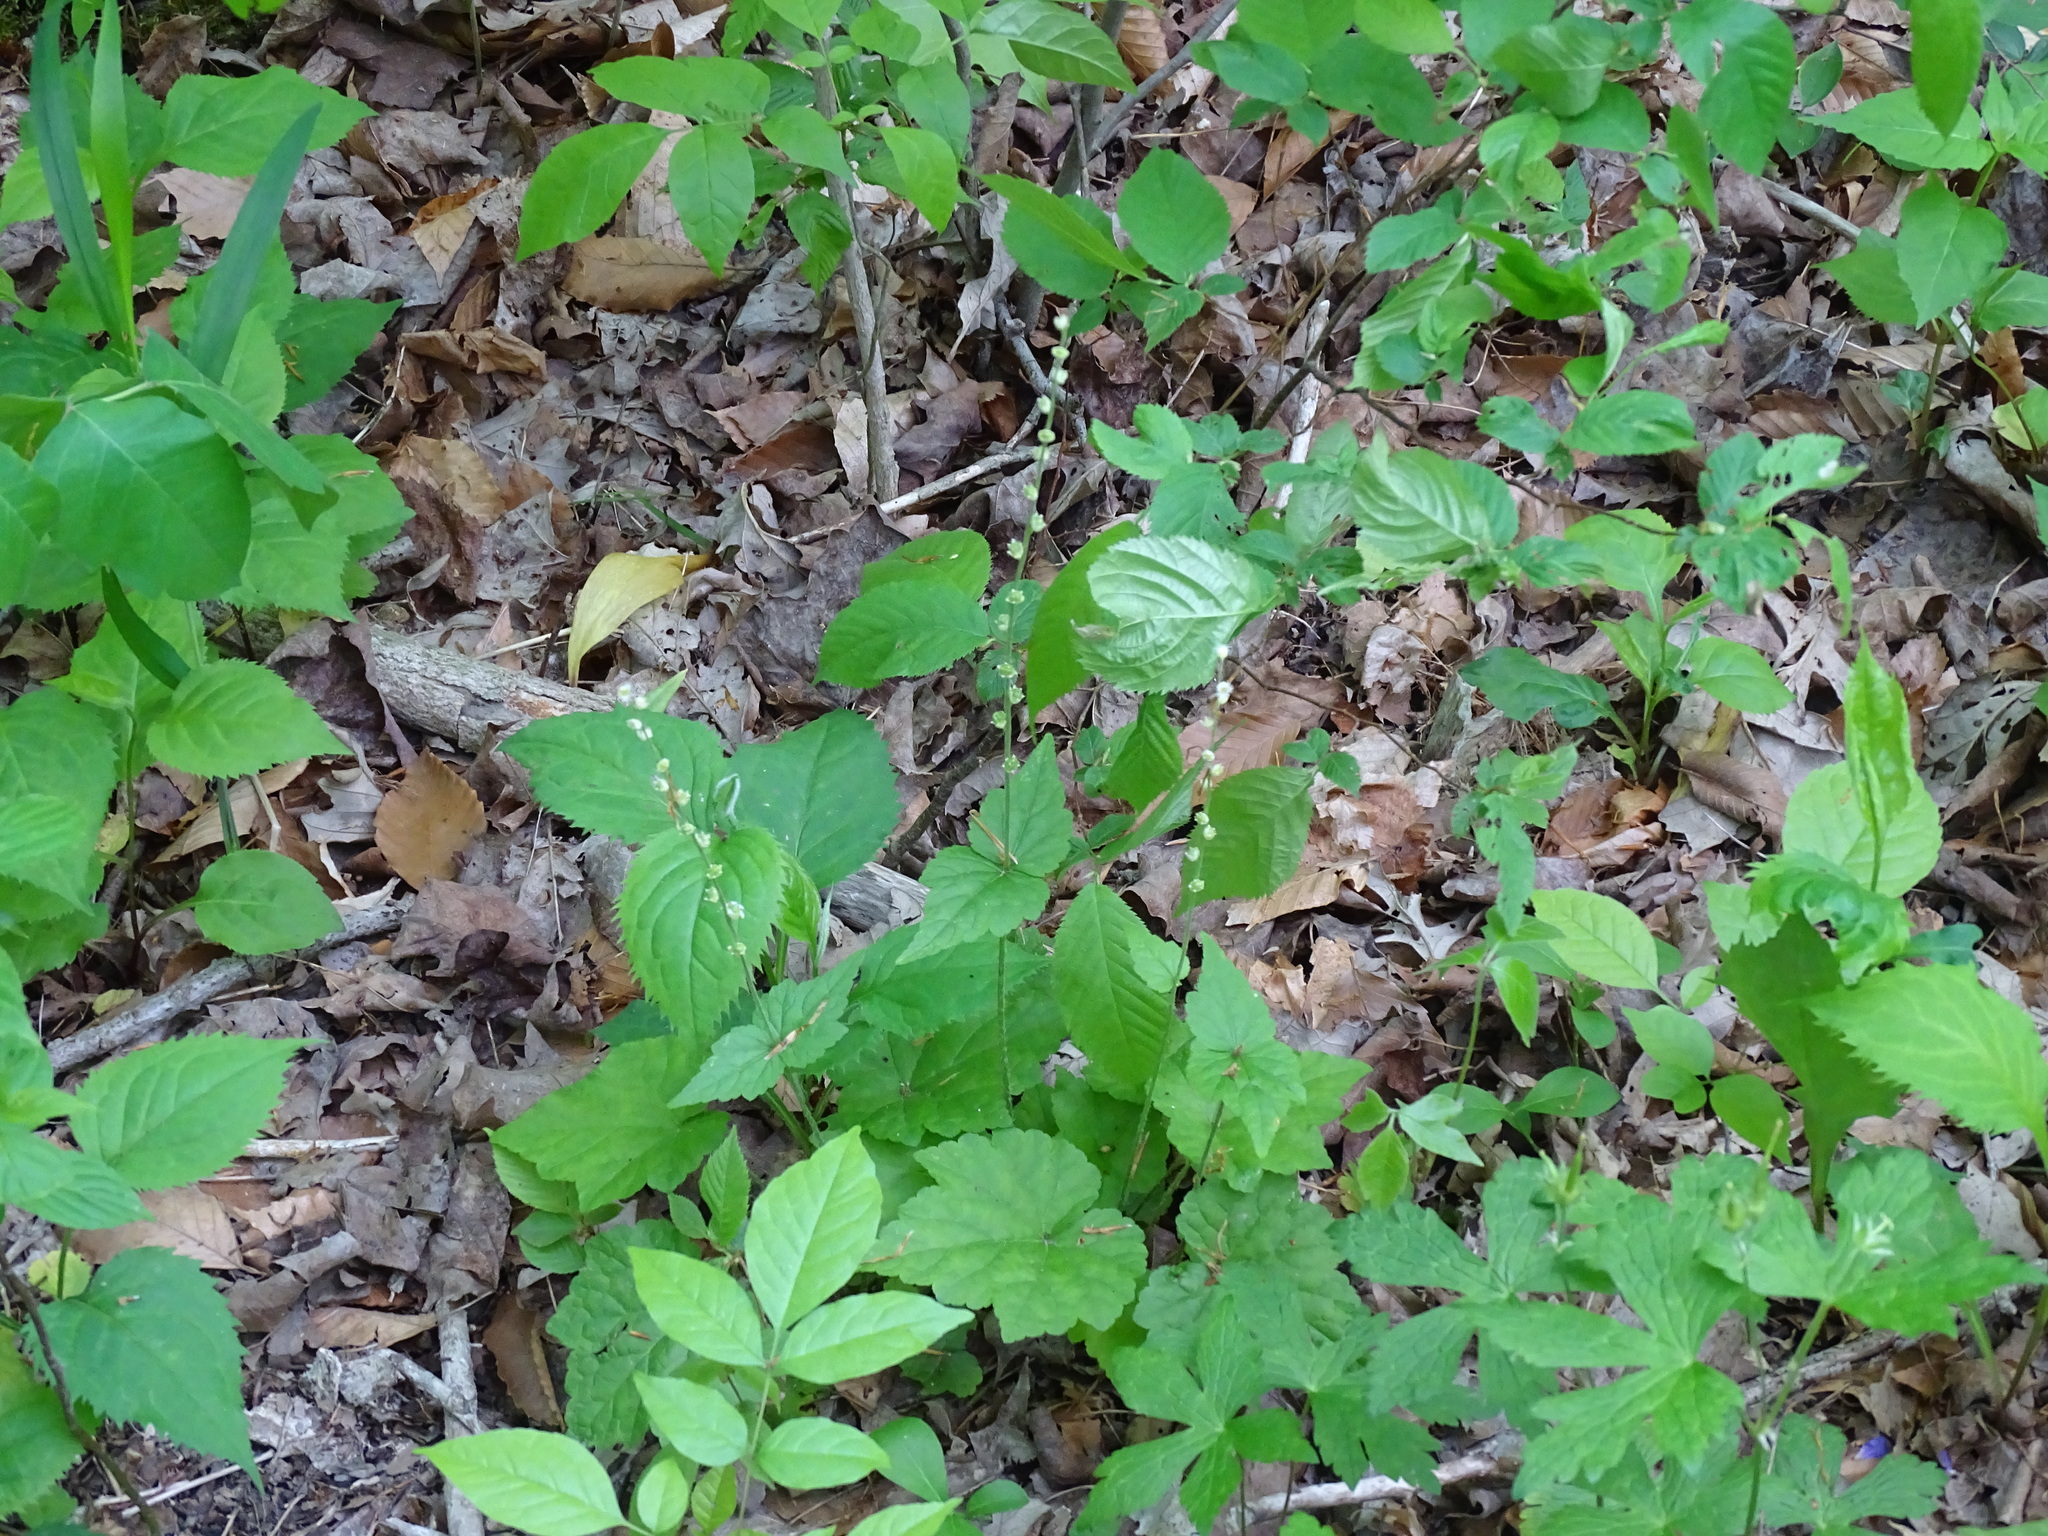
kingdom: Plantae
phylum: Tracheophyta
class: Magnoliopsida
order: Saxifragales
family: Saxifragaceae
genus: Mitella
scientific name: Mitella diphylla
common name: Coolwort
